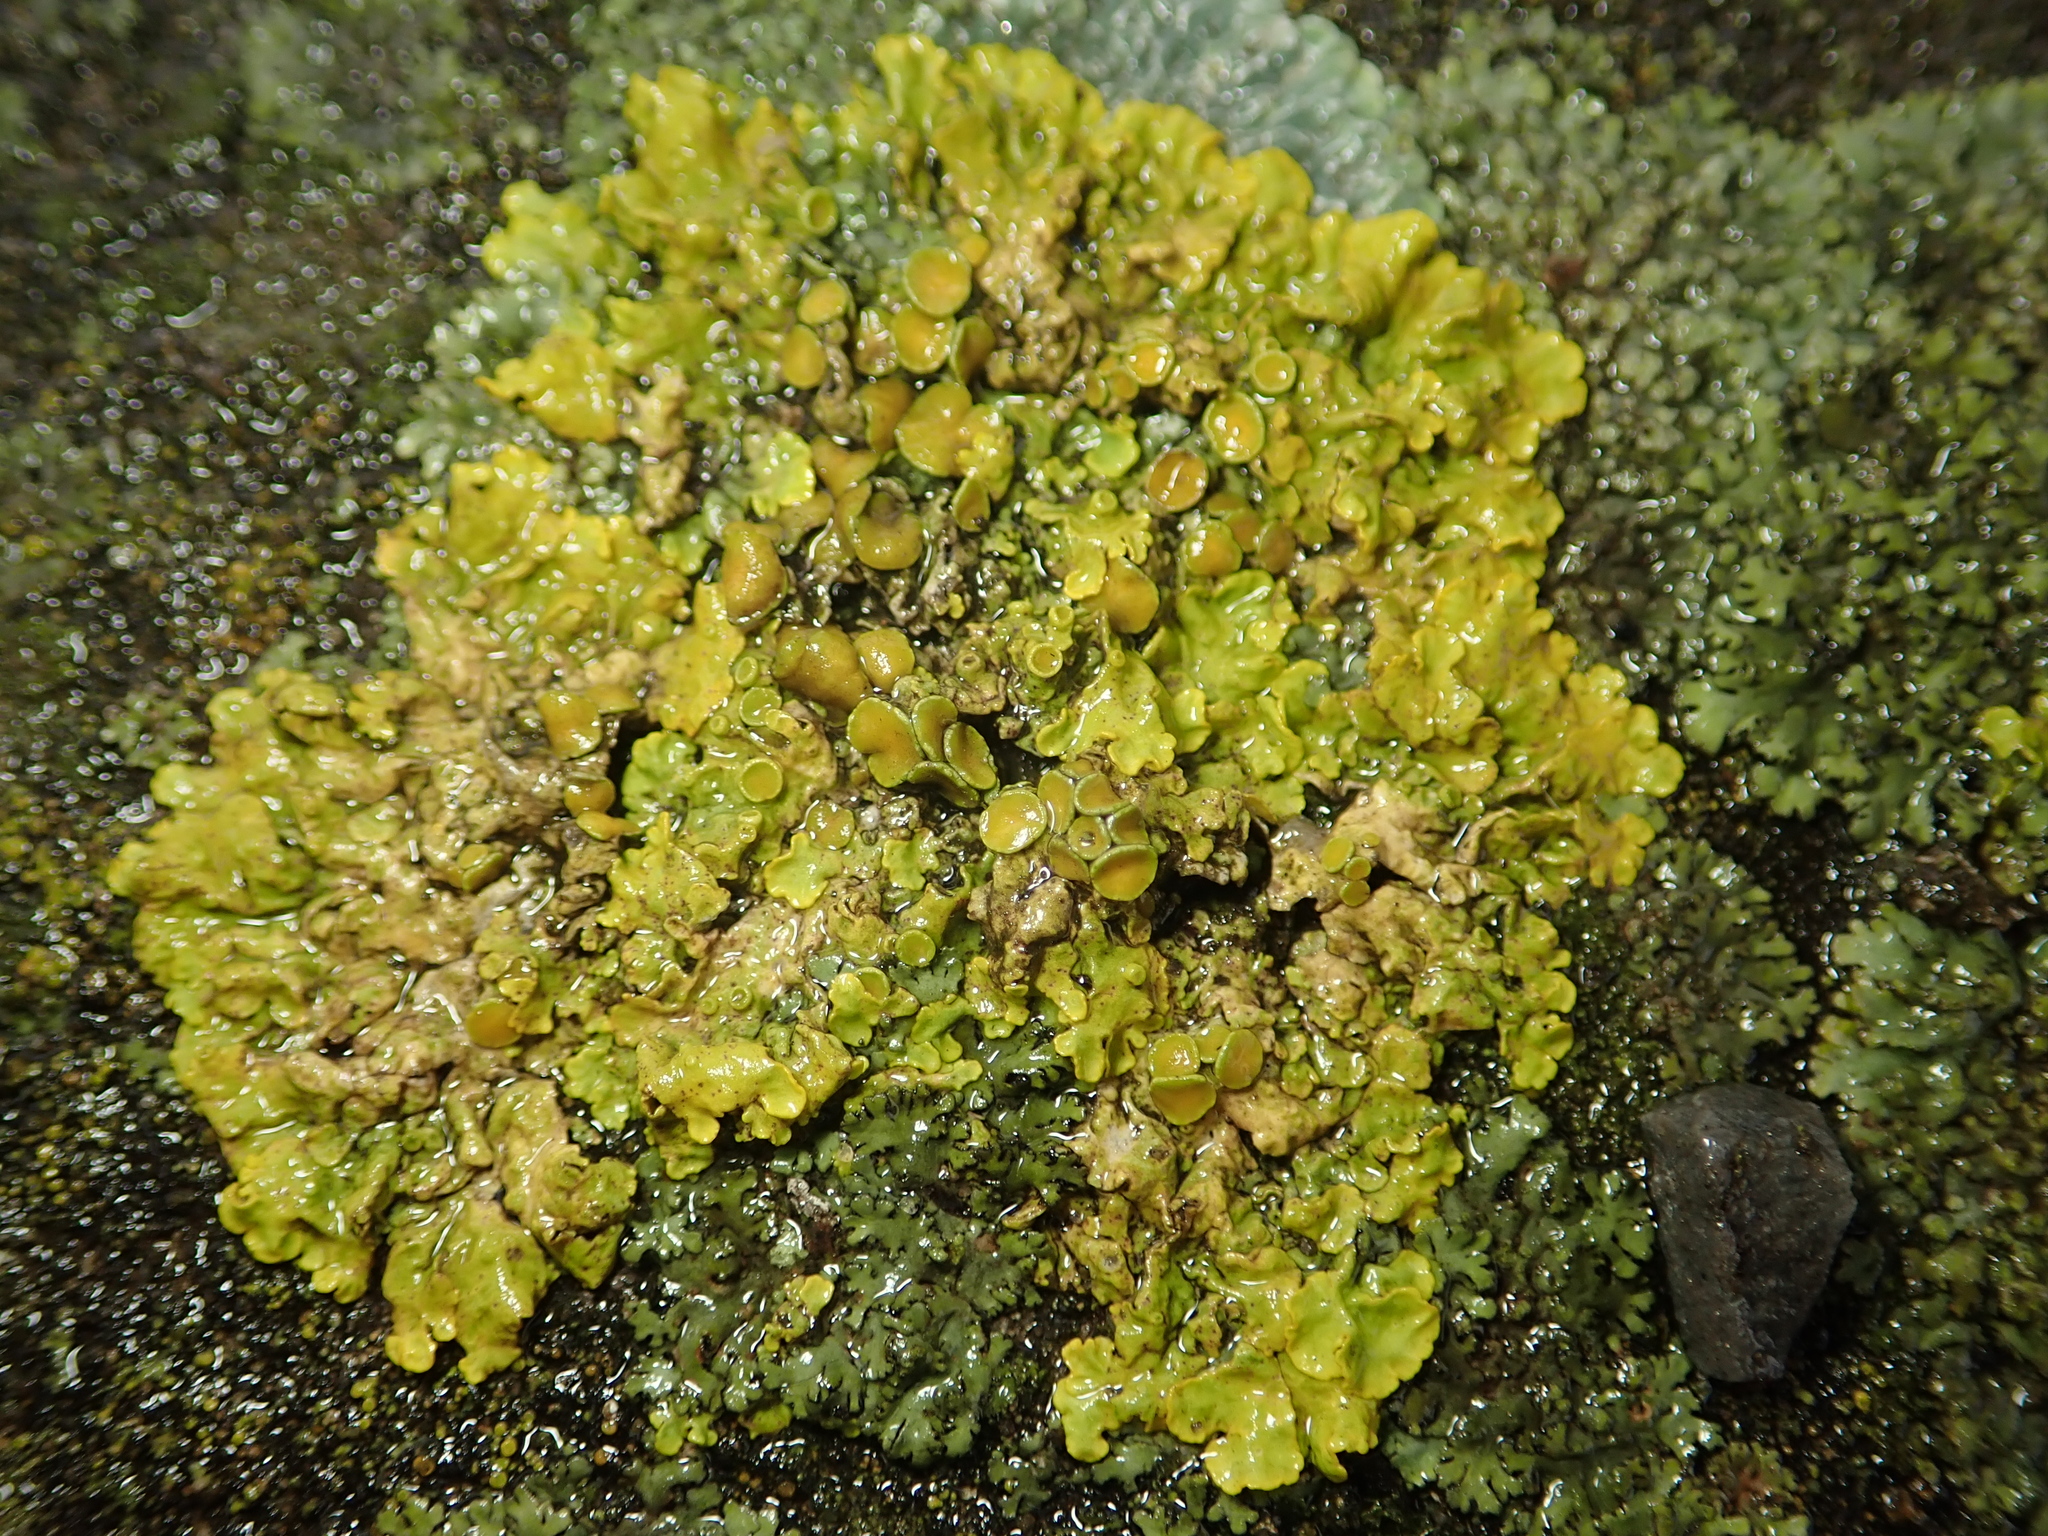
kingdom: Fungi
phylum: Ascomycota
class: Lecanoromycetes
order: Teloschistales
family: Teloschistaceae
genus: Xanthoria
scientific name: Xanthoria parietina
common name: Common orange lichen
